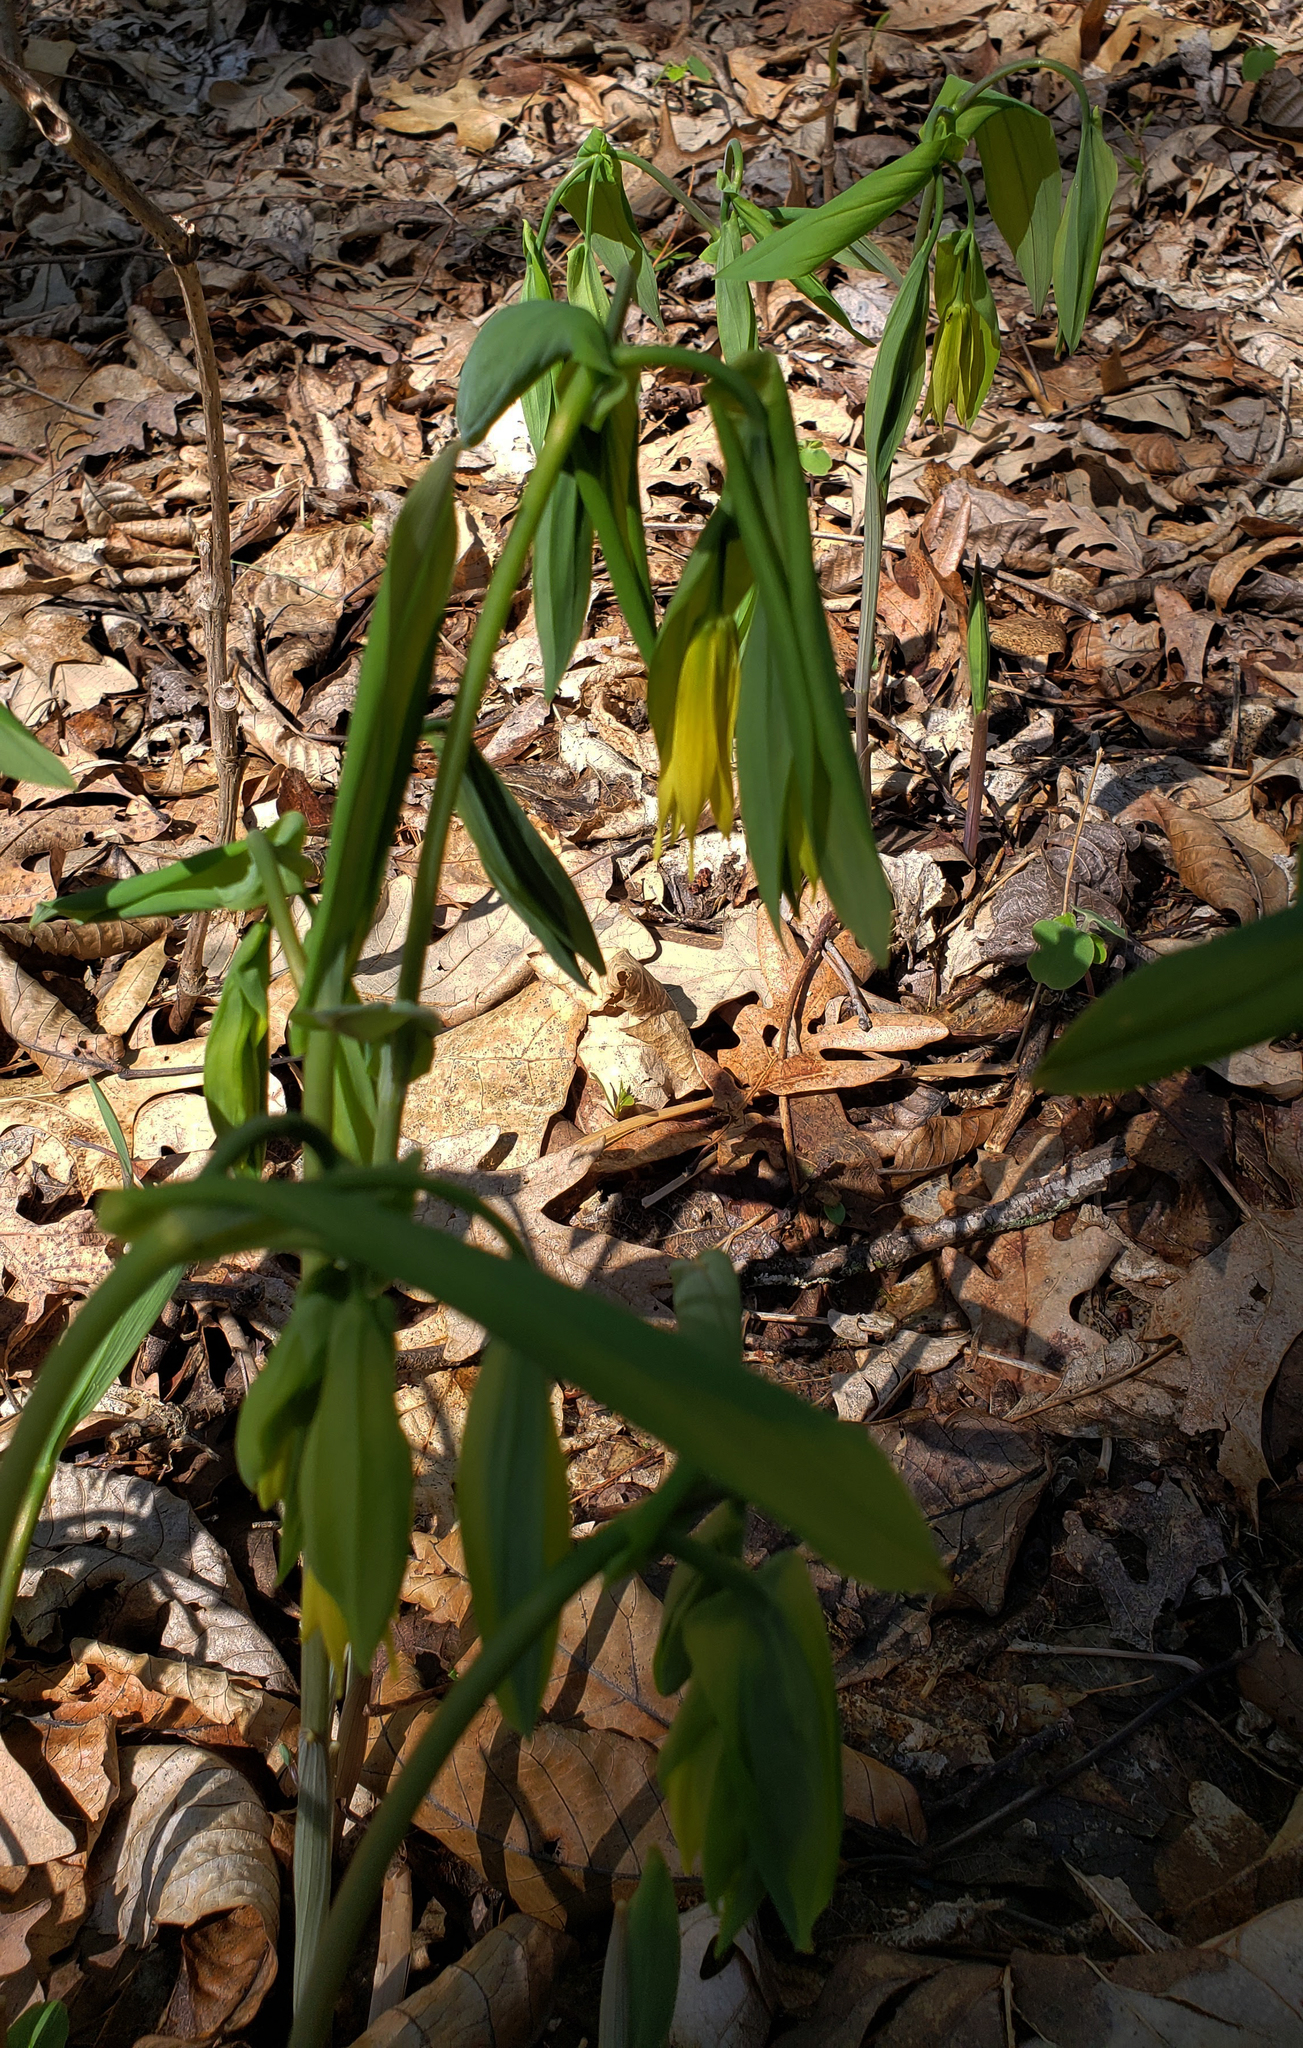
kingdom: Plantae
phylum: Tracheophyta
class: Liliopsida
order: Liliales
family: Colchicaceae
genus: Uvularia
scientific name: Uvularia grandiflora
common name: Bellwort
